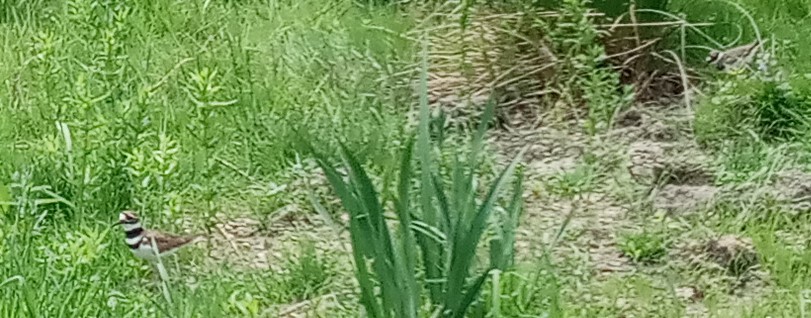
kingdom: Animalia
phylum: Chordata
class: Aves
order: Charadriiformes
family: Charadriidae
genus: Charadrius
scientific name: Charadrius vociferus
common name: Killdeer
